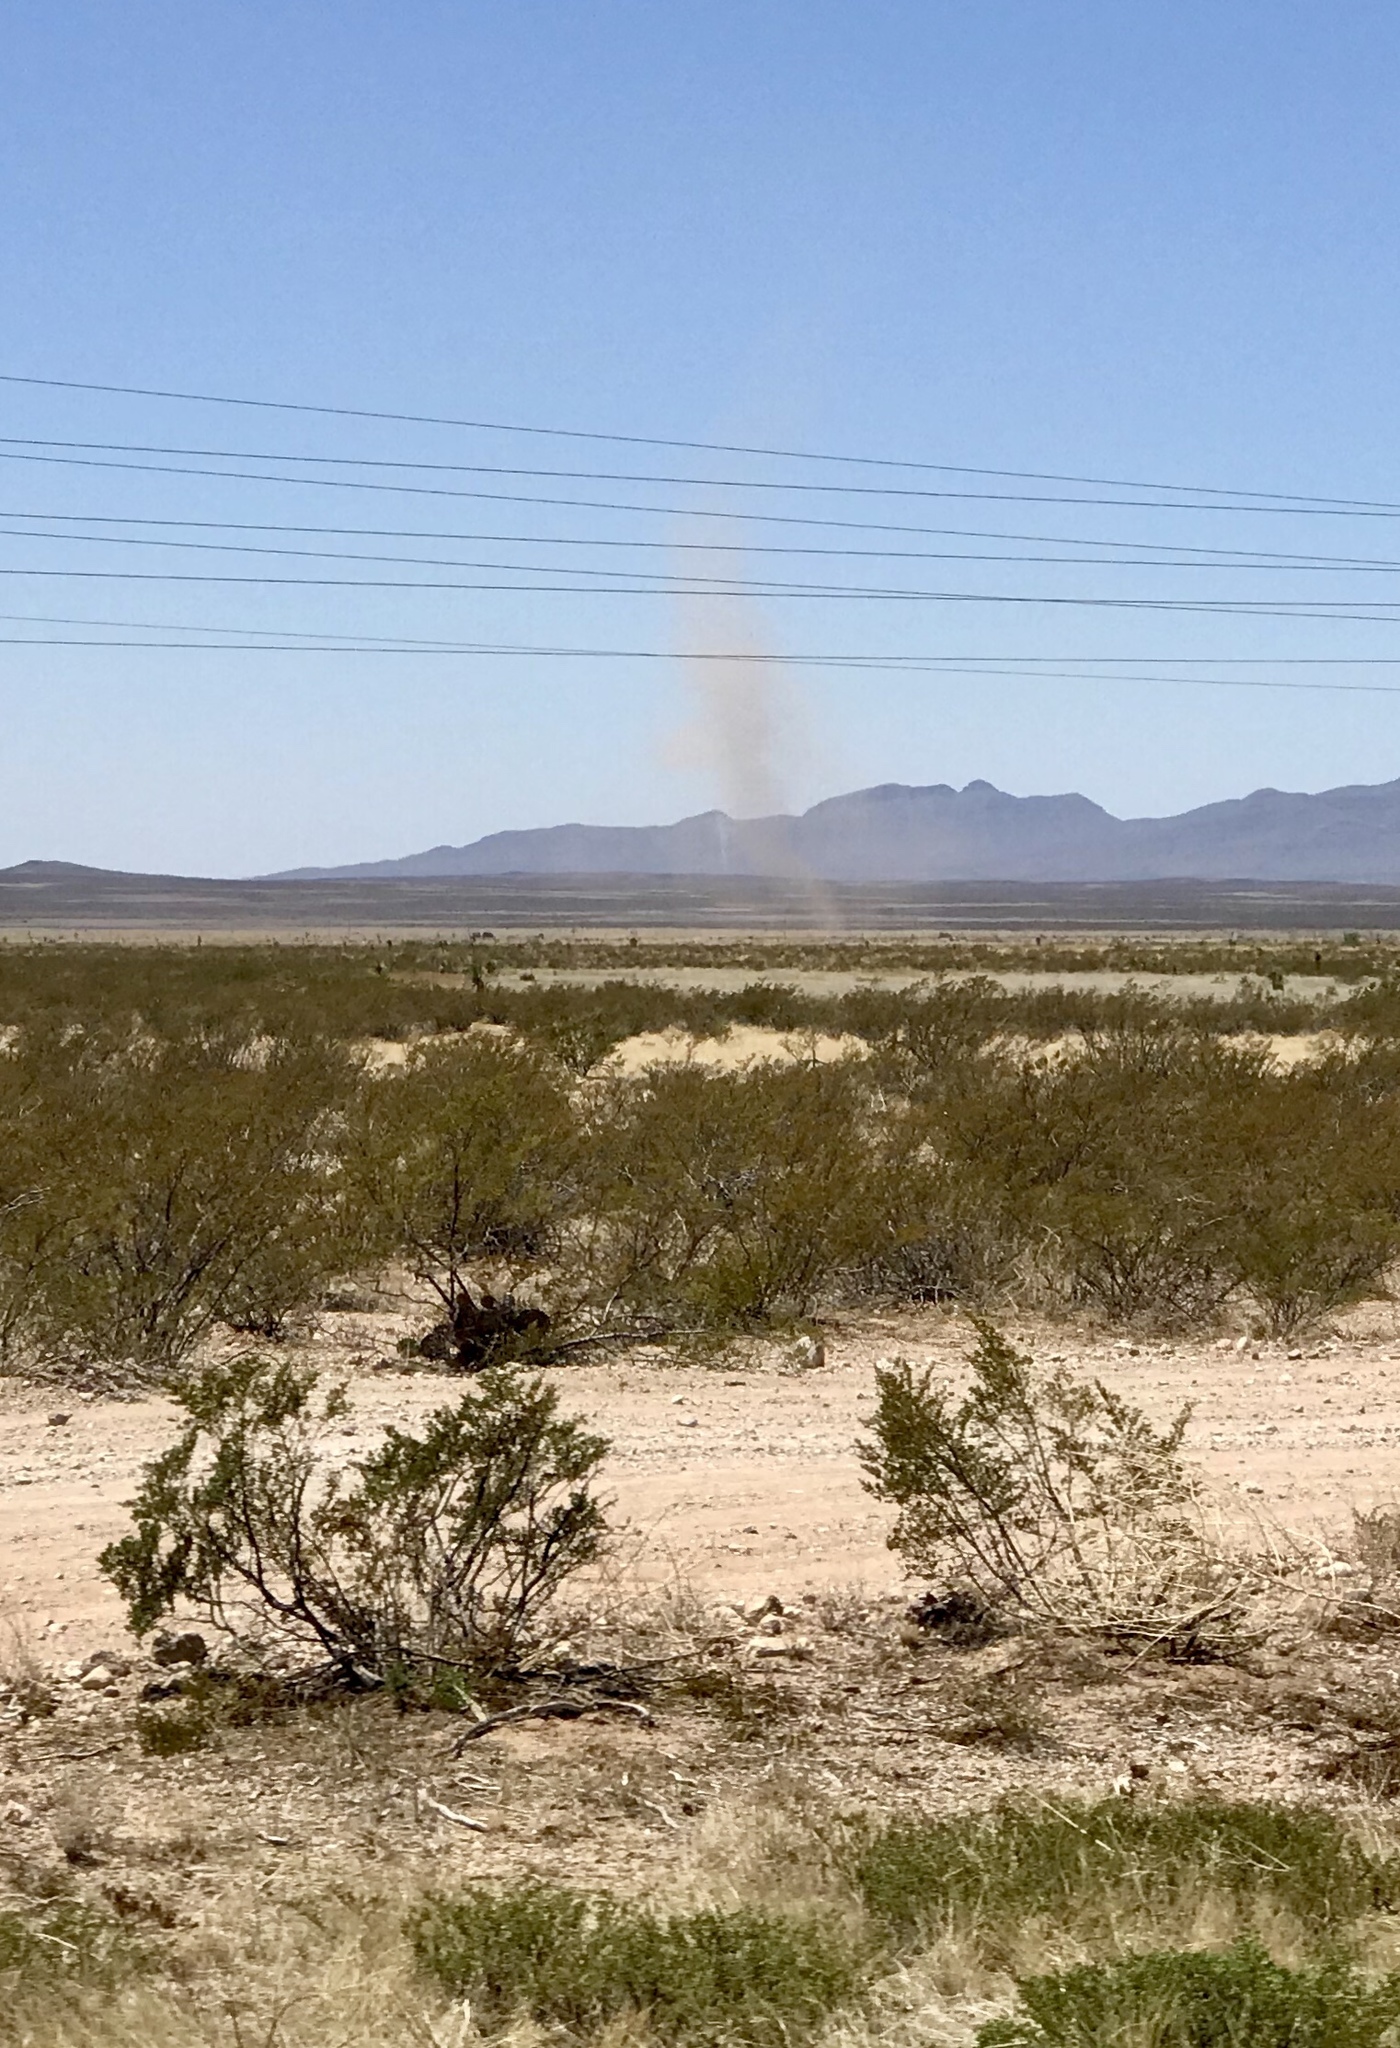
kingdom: Plantae
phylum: Tracheophyta
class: Magnoliopsida
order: Zygophyllales
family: Zygophyllaceae
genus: Larrea
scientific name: Larrea tridentata
